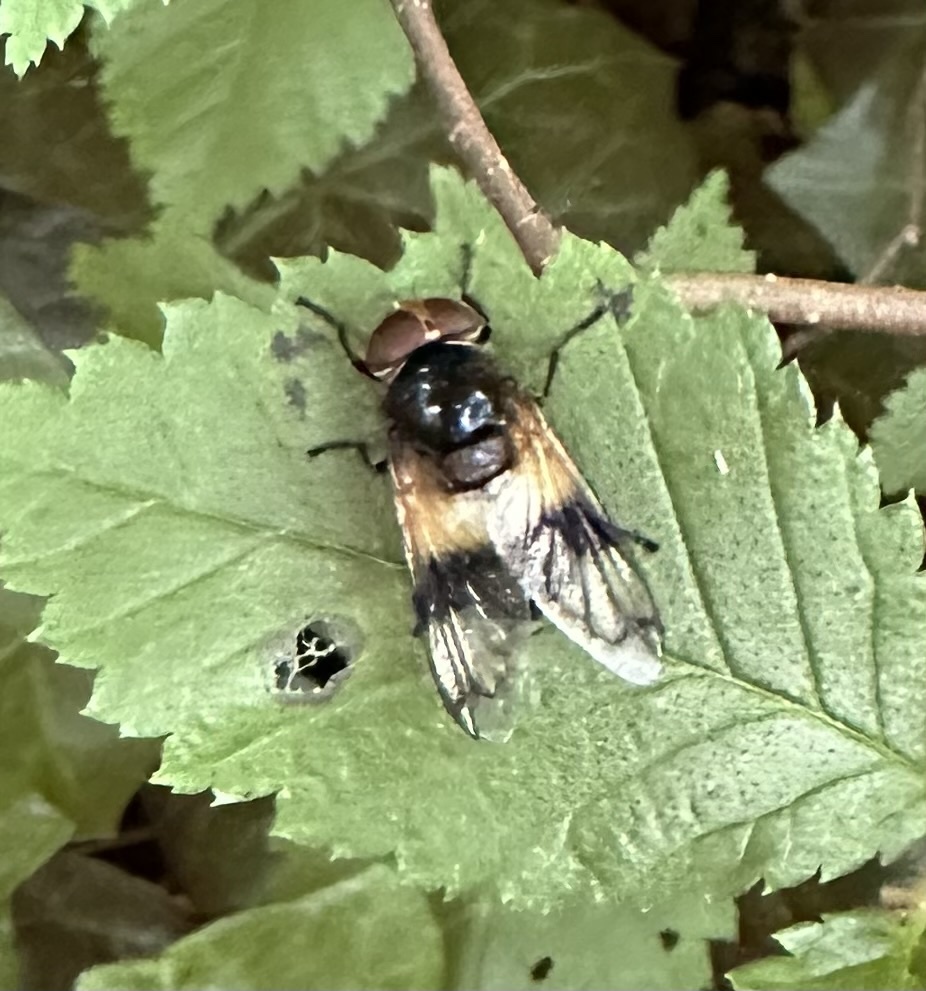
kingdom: Animalia
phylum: Arthropoda
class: Insecta
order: Diptera
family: Syrphidae
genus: Volucella
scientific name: Volucella pellucens
